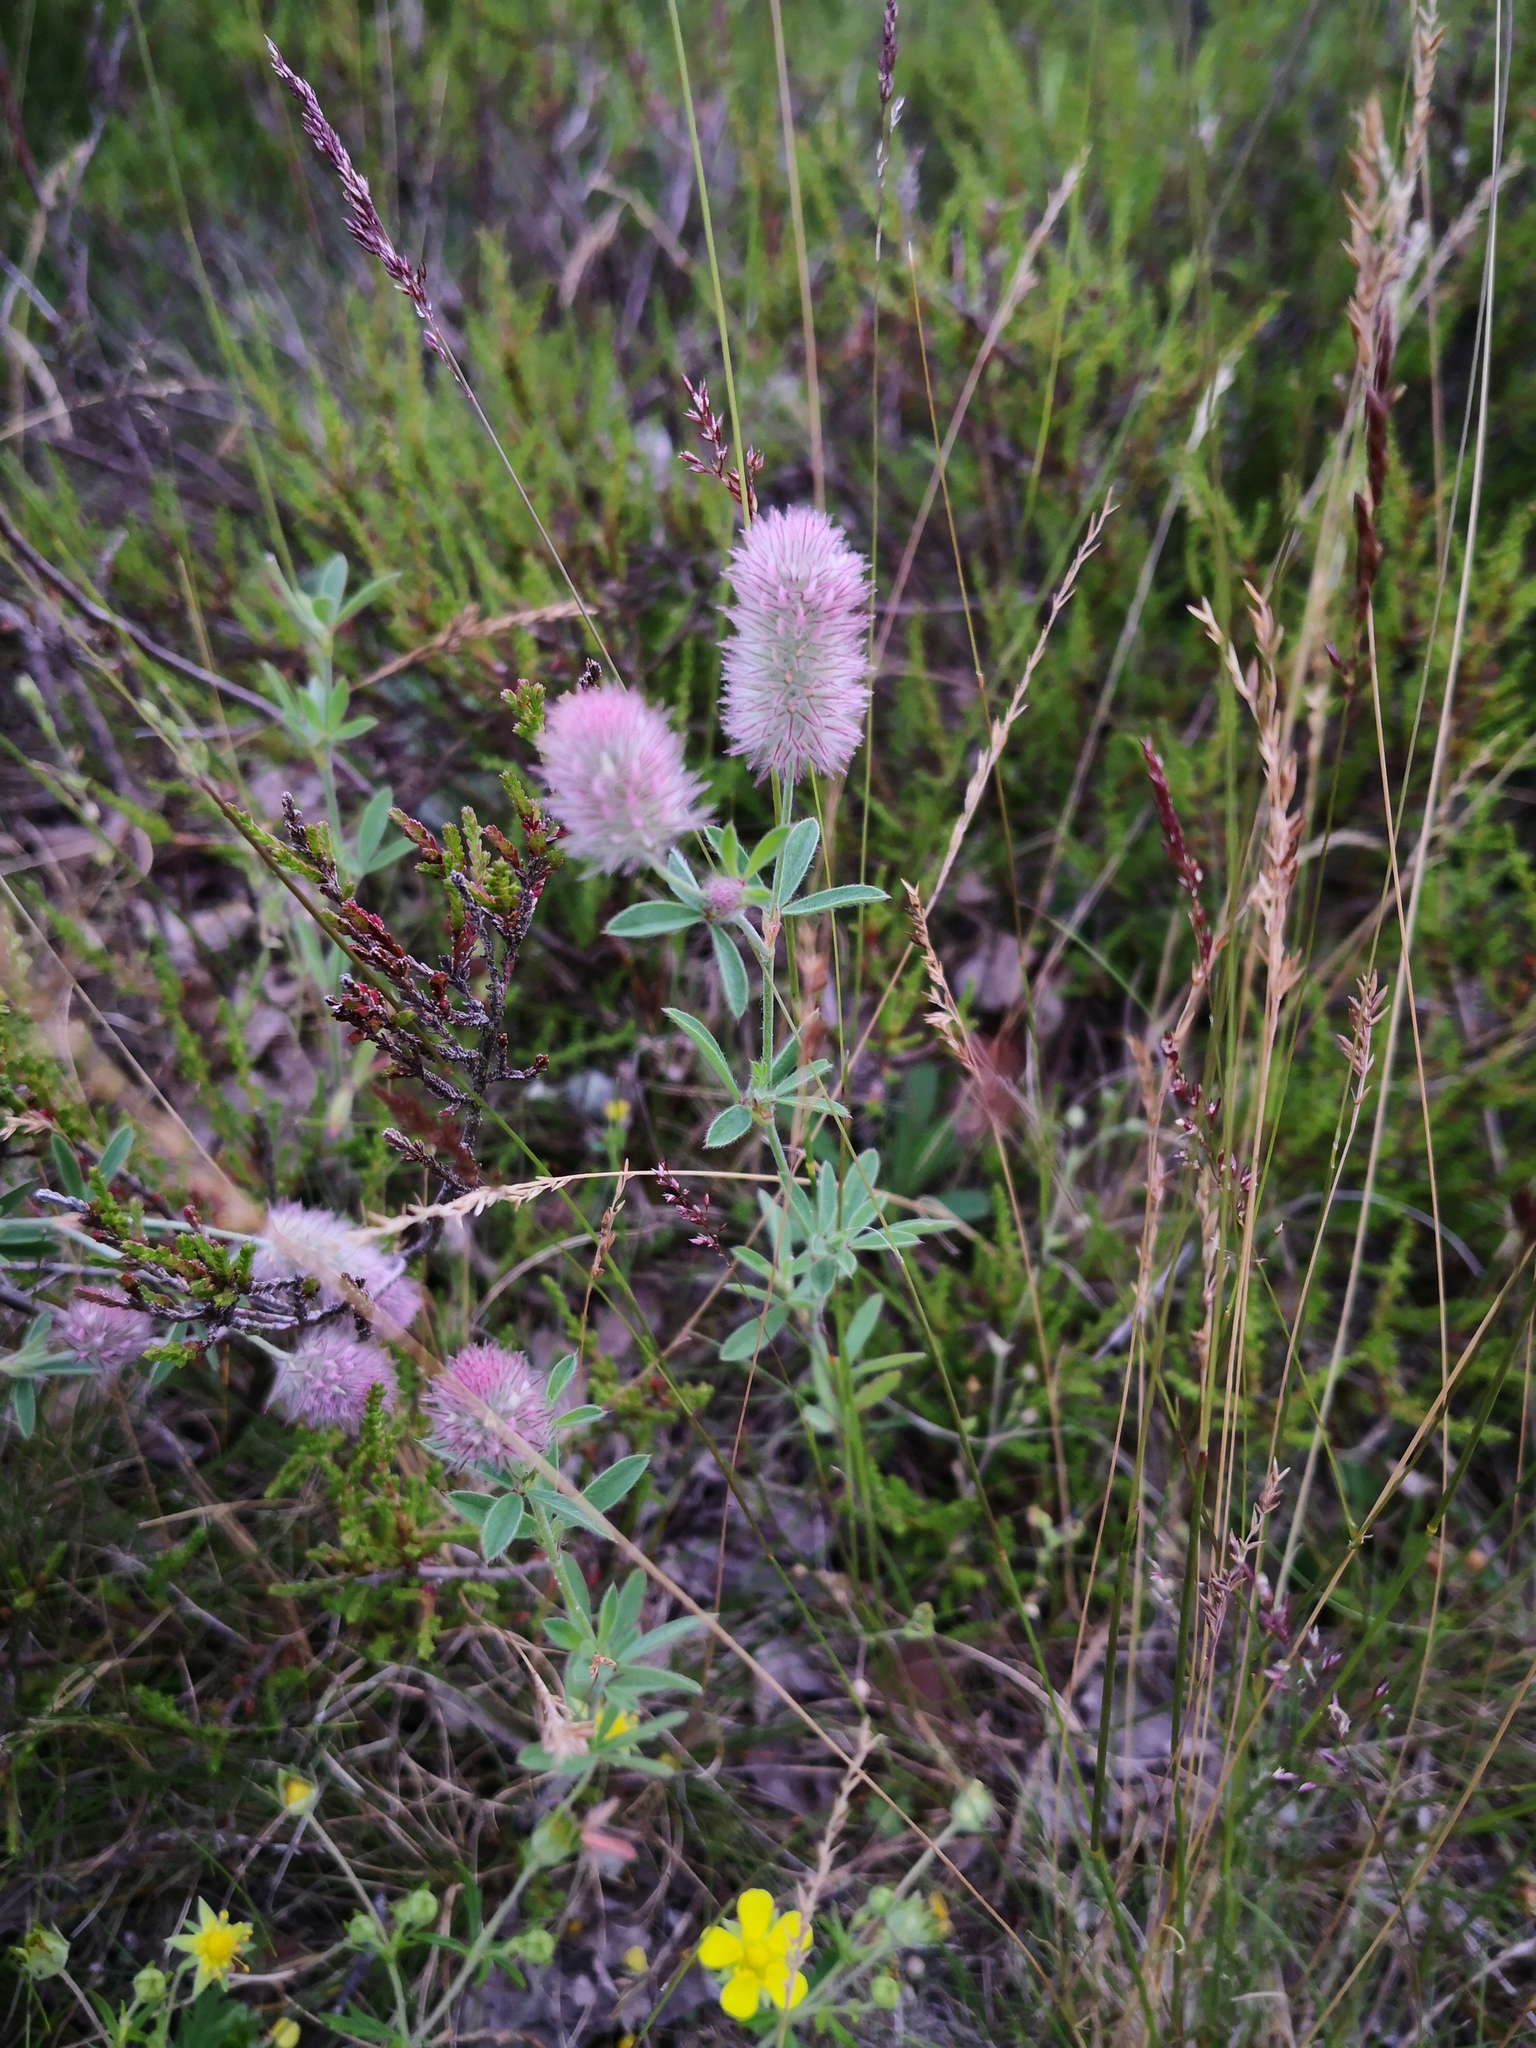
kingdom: Plantae
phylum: Tracheophyta
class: Magnoliopsida
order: Fabales
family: Fabaceae
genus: Trifolium
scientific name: Trifolium arvense
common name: Hare's-foot clover
